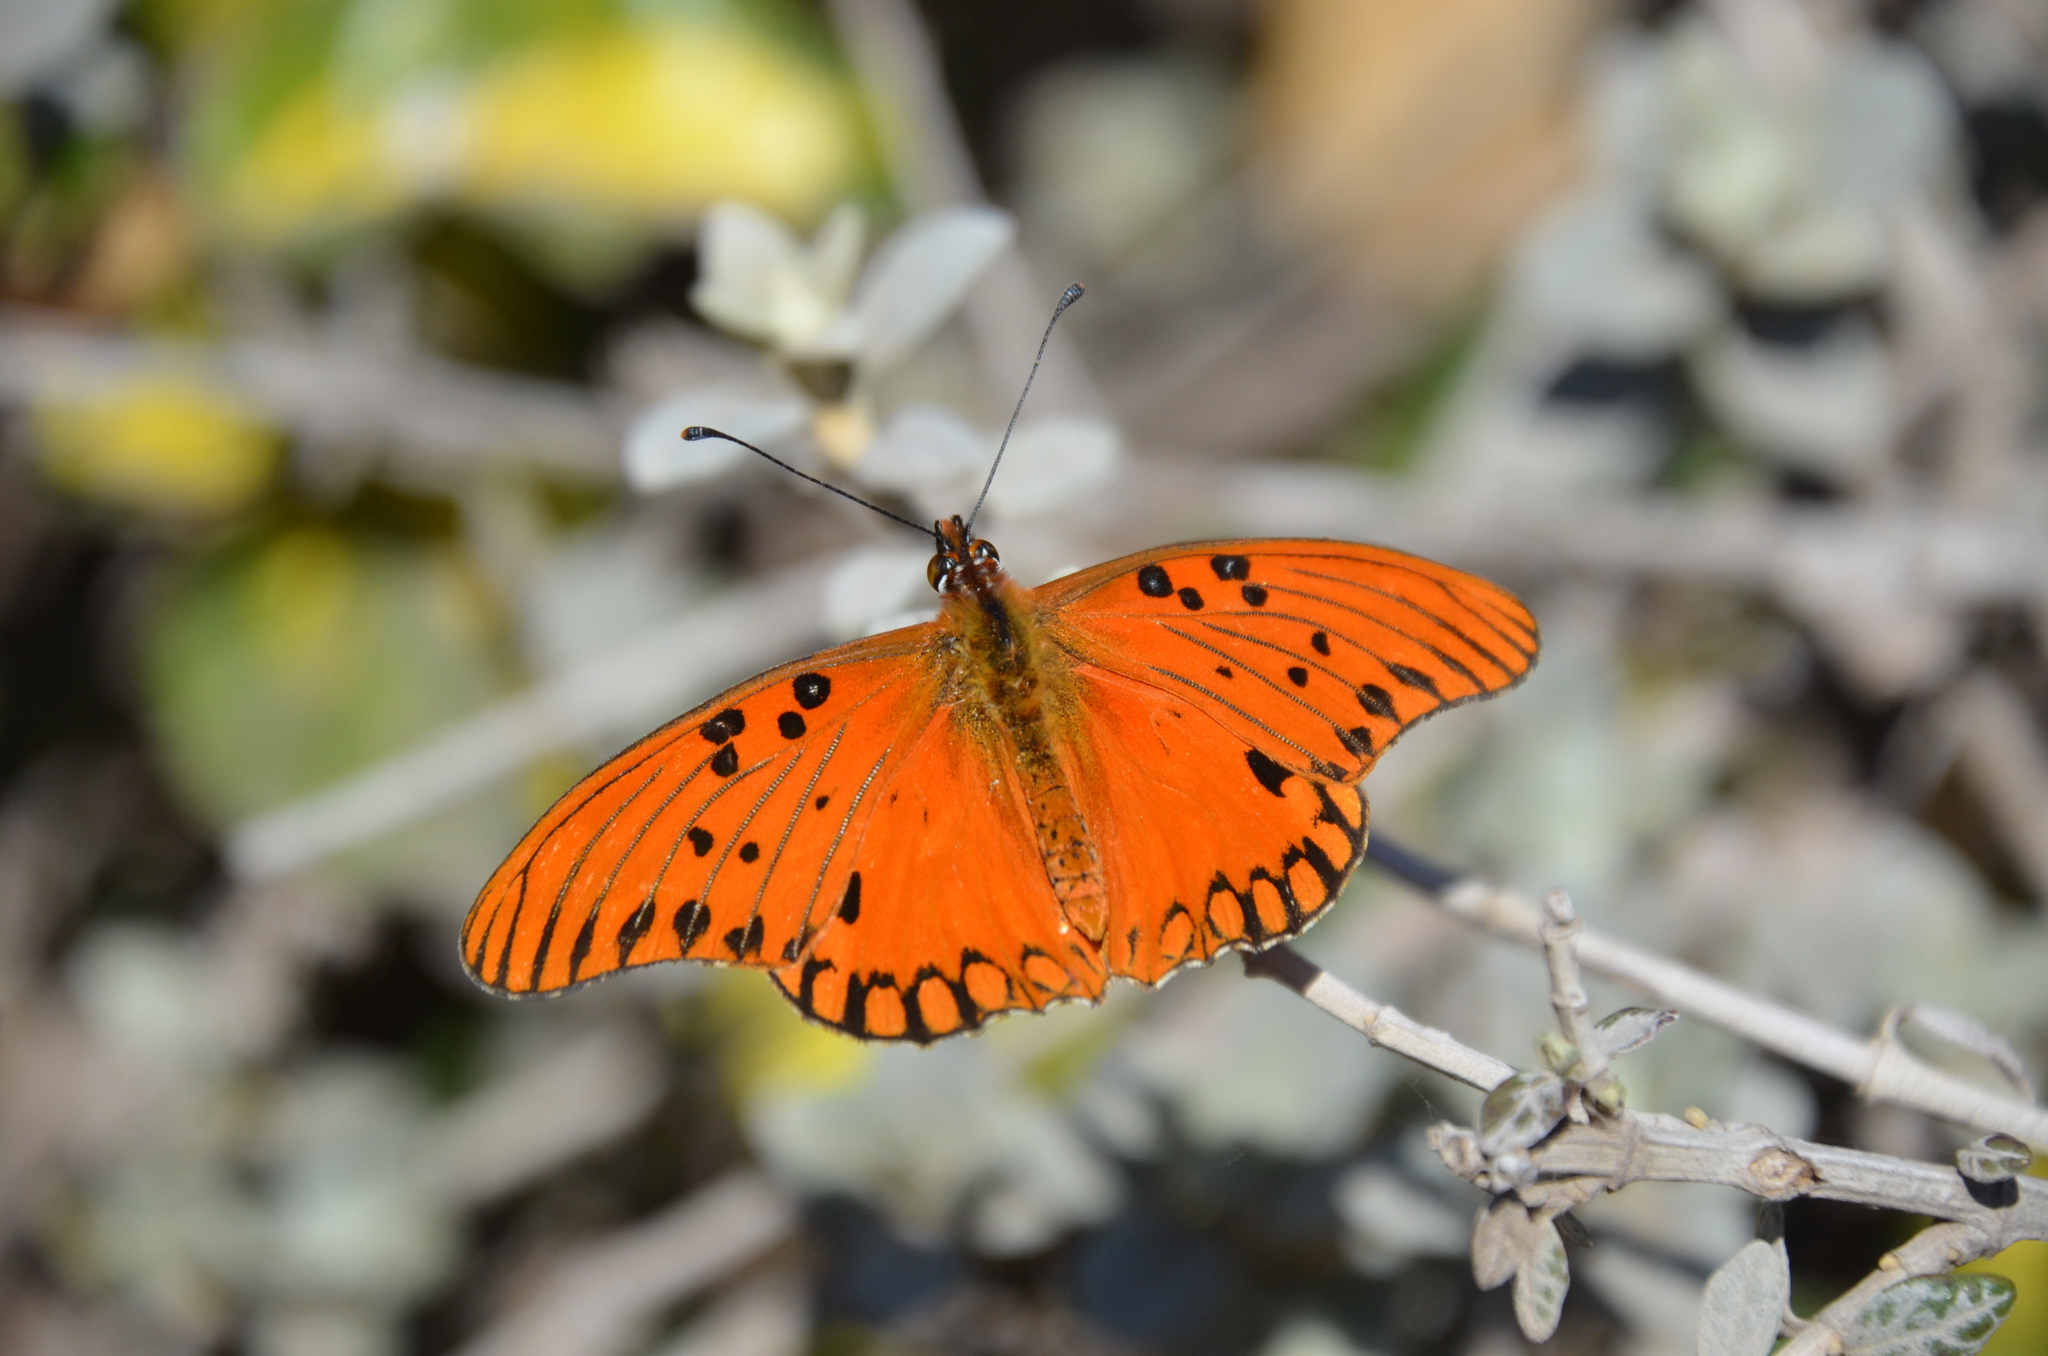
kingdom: Animalia
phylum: Arthropoda
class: Insecta
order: Lepidoptera
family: Nymphalidae
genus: Dione
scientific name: Dione vanillae
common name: Gulf fritillary
